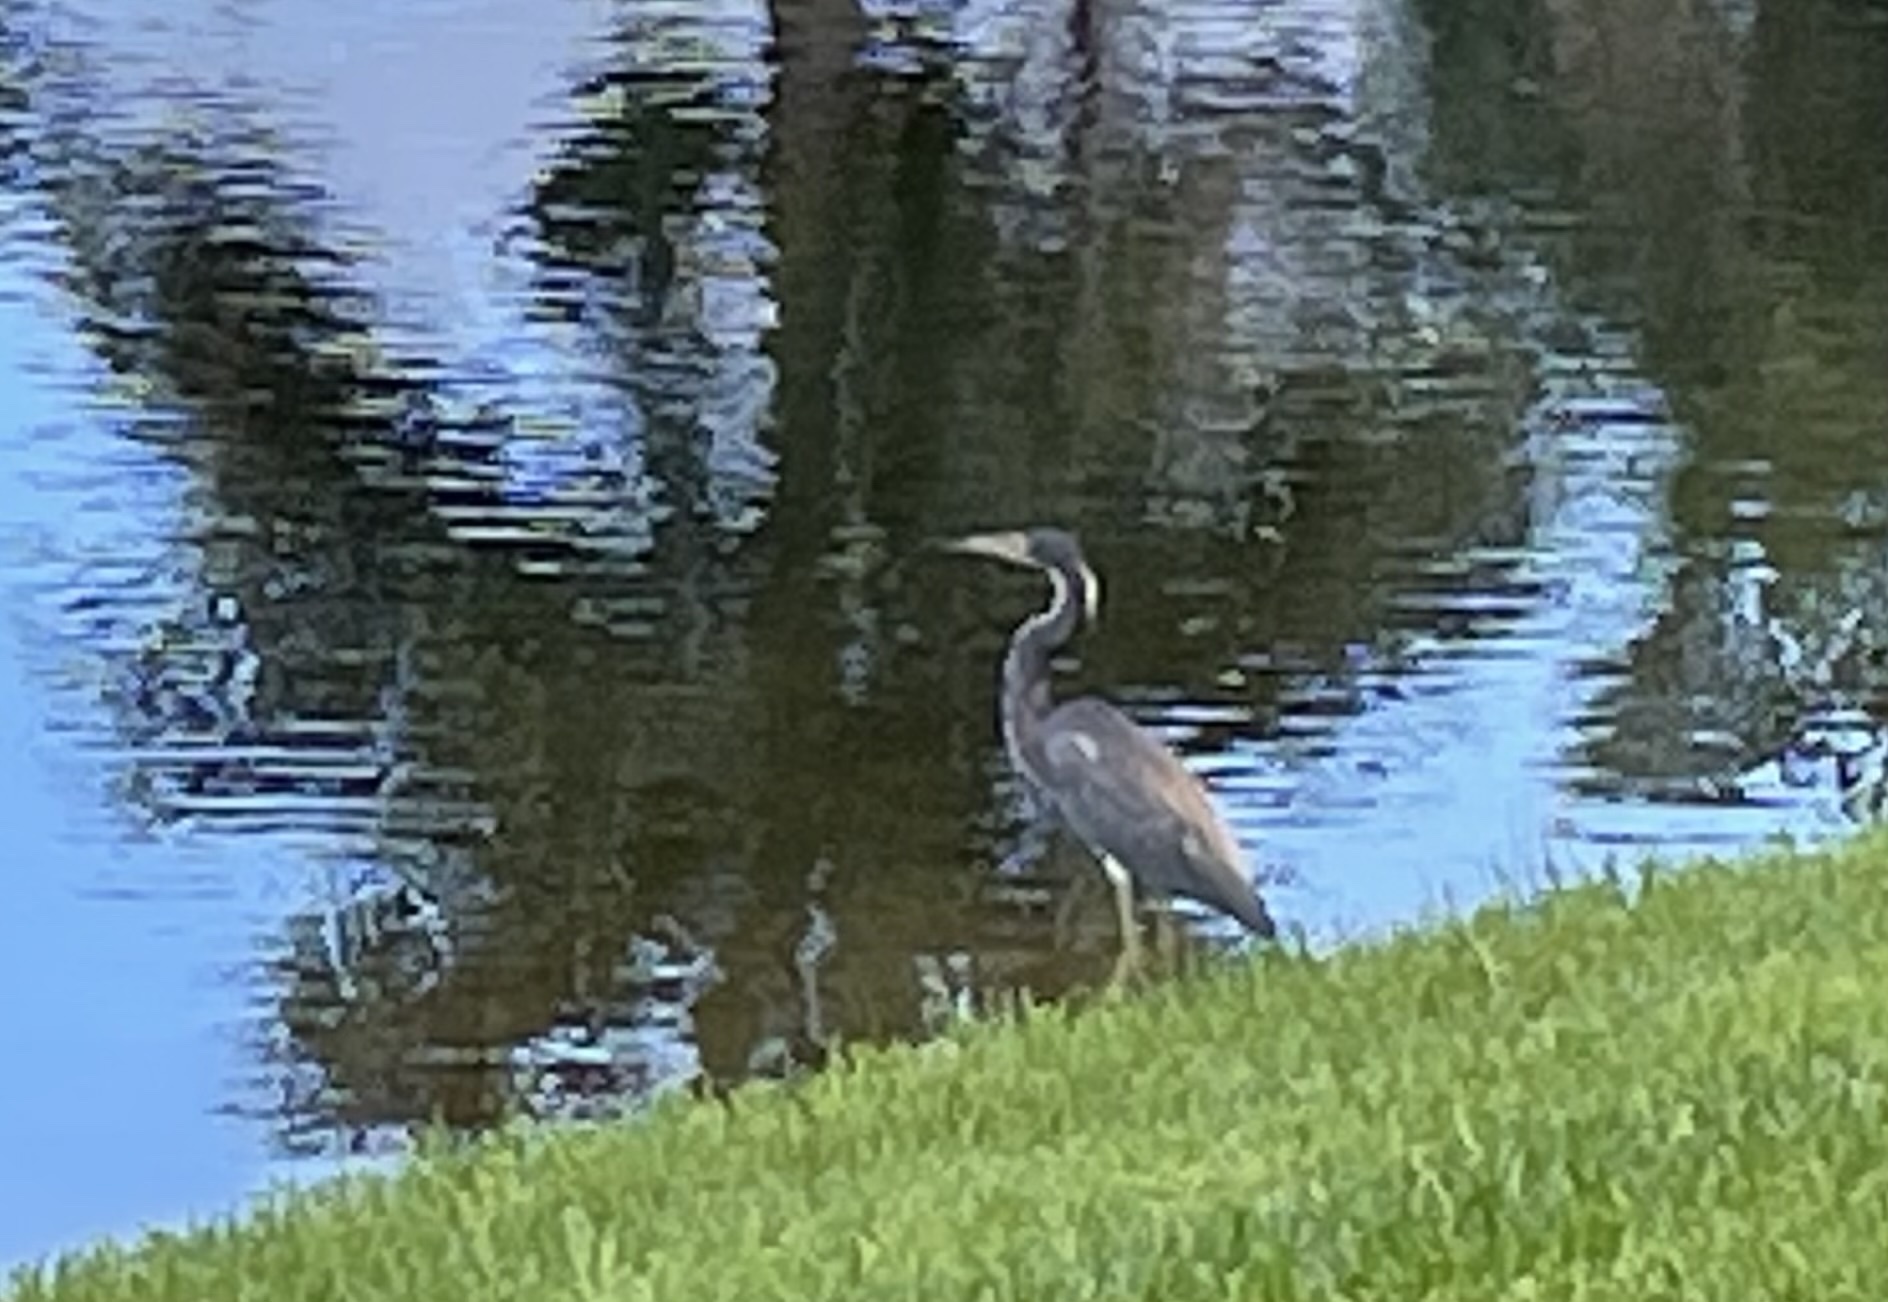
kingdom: Animalia
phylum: Chordata
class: Aves
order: Pelecaniformes
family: Ardeidae
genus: Egretta
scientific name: Egretta tricolor
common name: Tricolored heron
